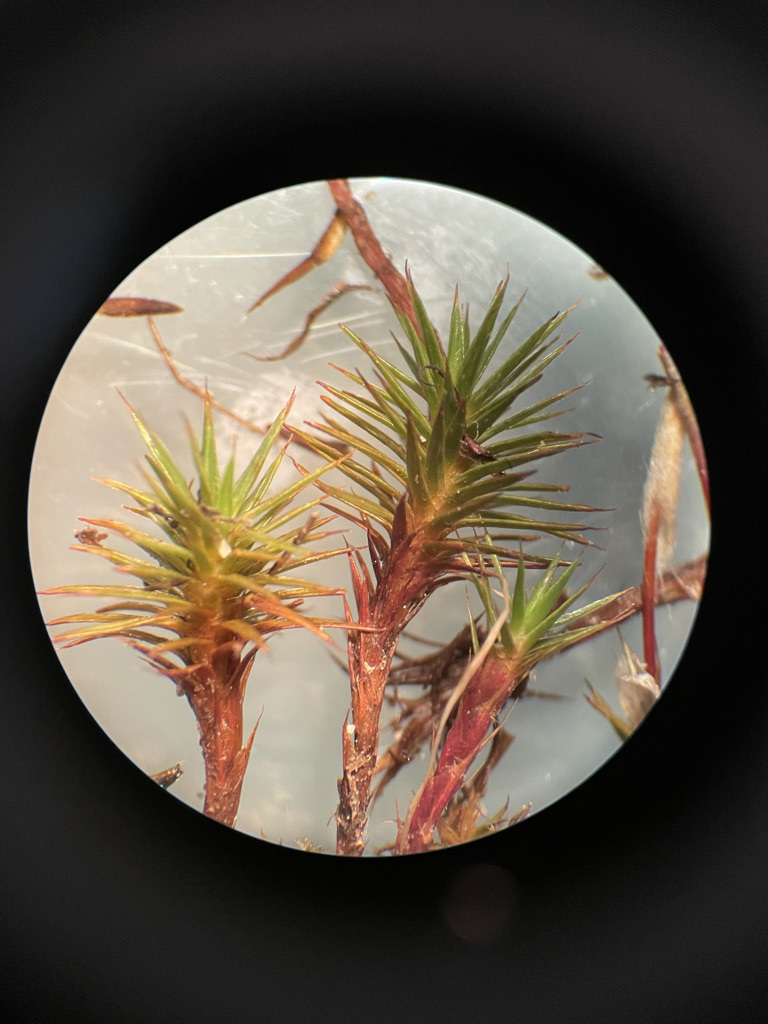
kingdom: Plantae
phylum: Bryophyta
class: Polytrichopsida
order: Polytrichales
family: Polytrichaceae
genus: Polytrichum
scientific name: Polytrichum juniperinum
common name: Juniper haircap moss
